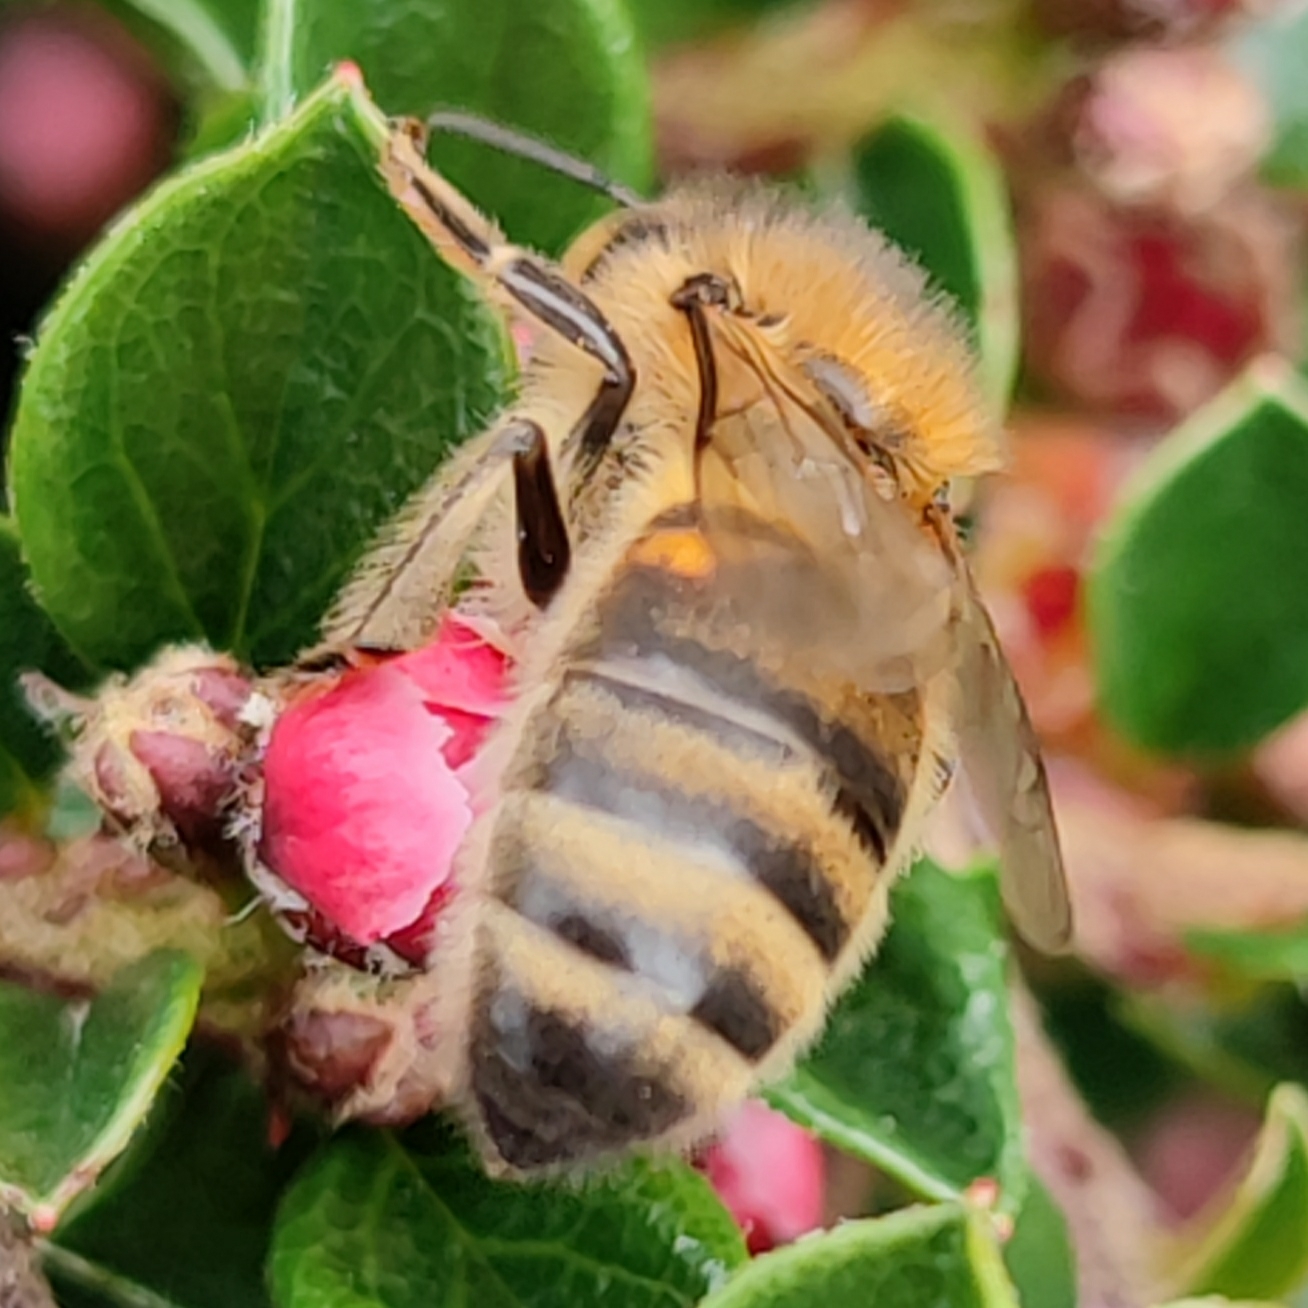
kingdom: Animalia
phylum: Arthropoda
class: Insecta
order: Hymenoptera
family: Apidae
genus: Apis
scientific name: Apis mellifera
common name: Honey bee
